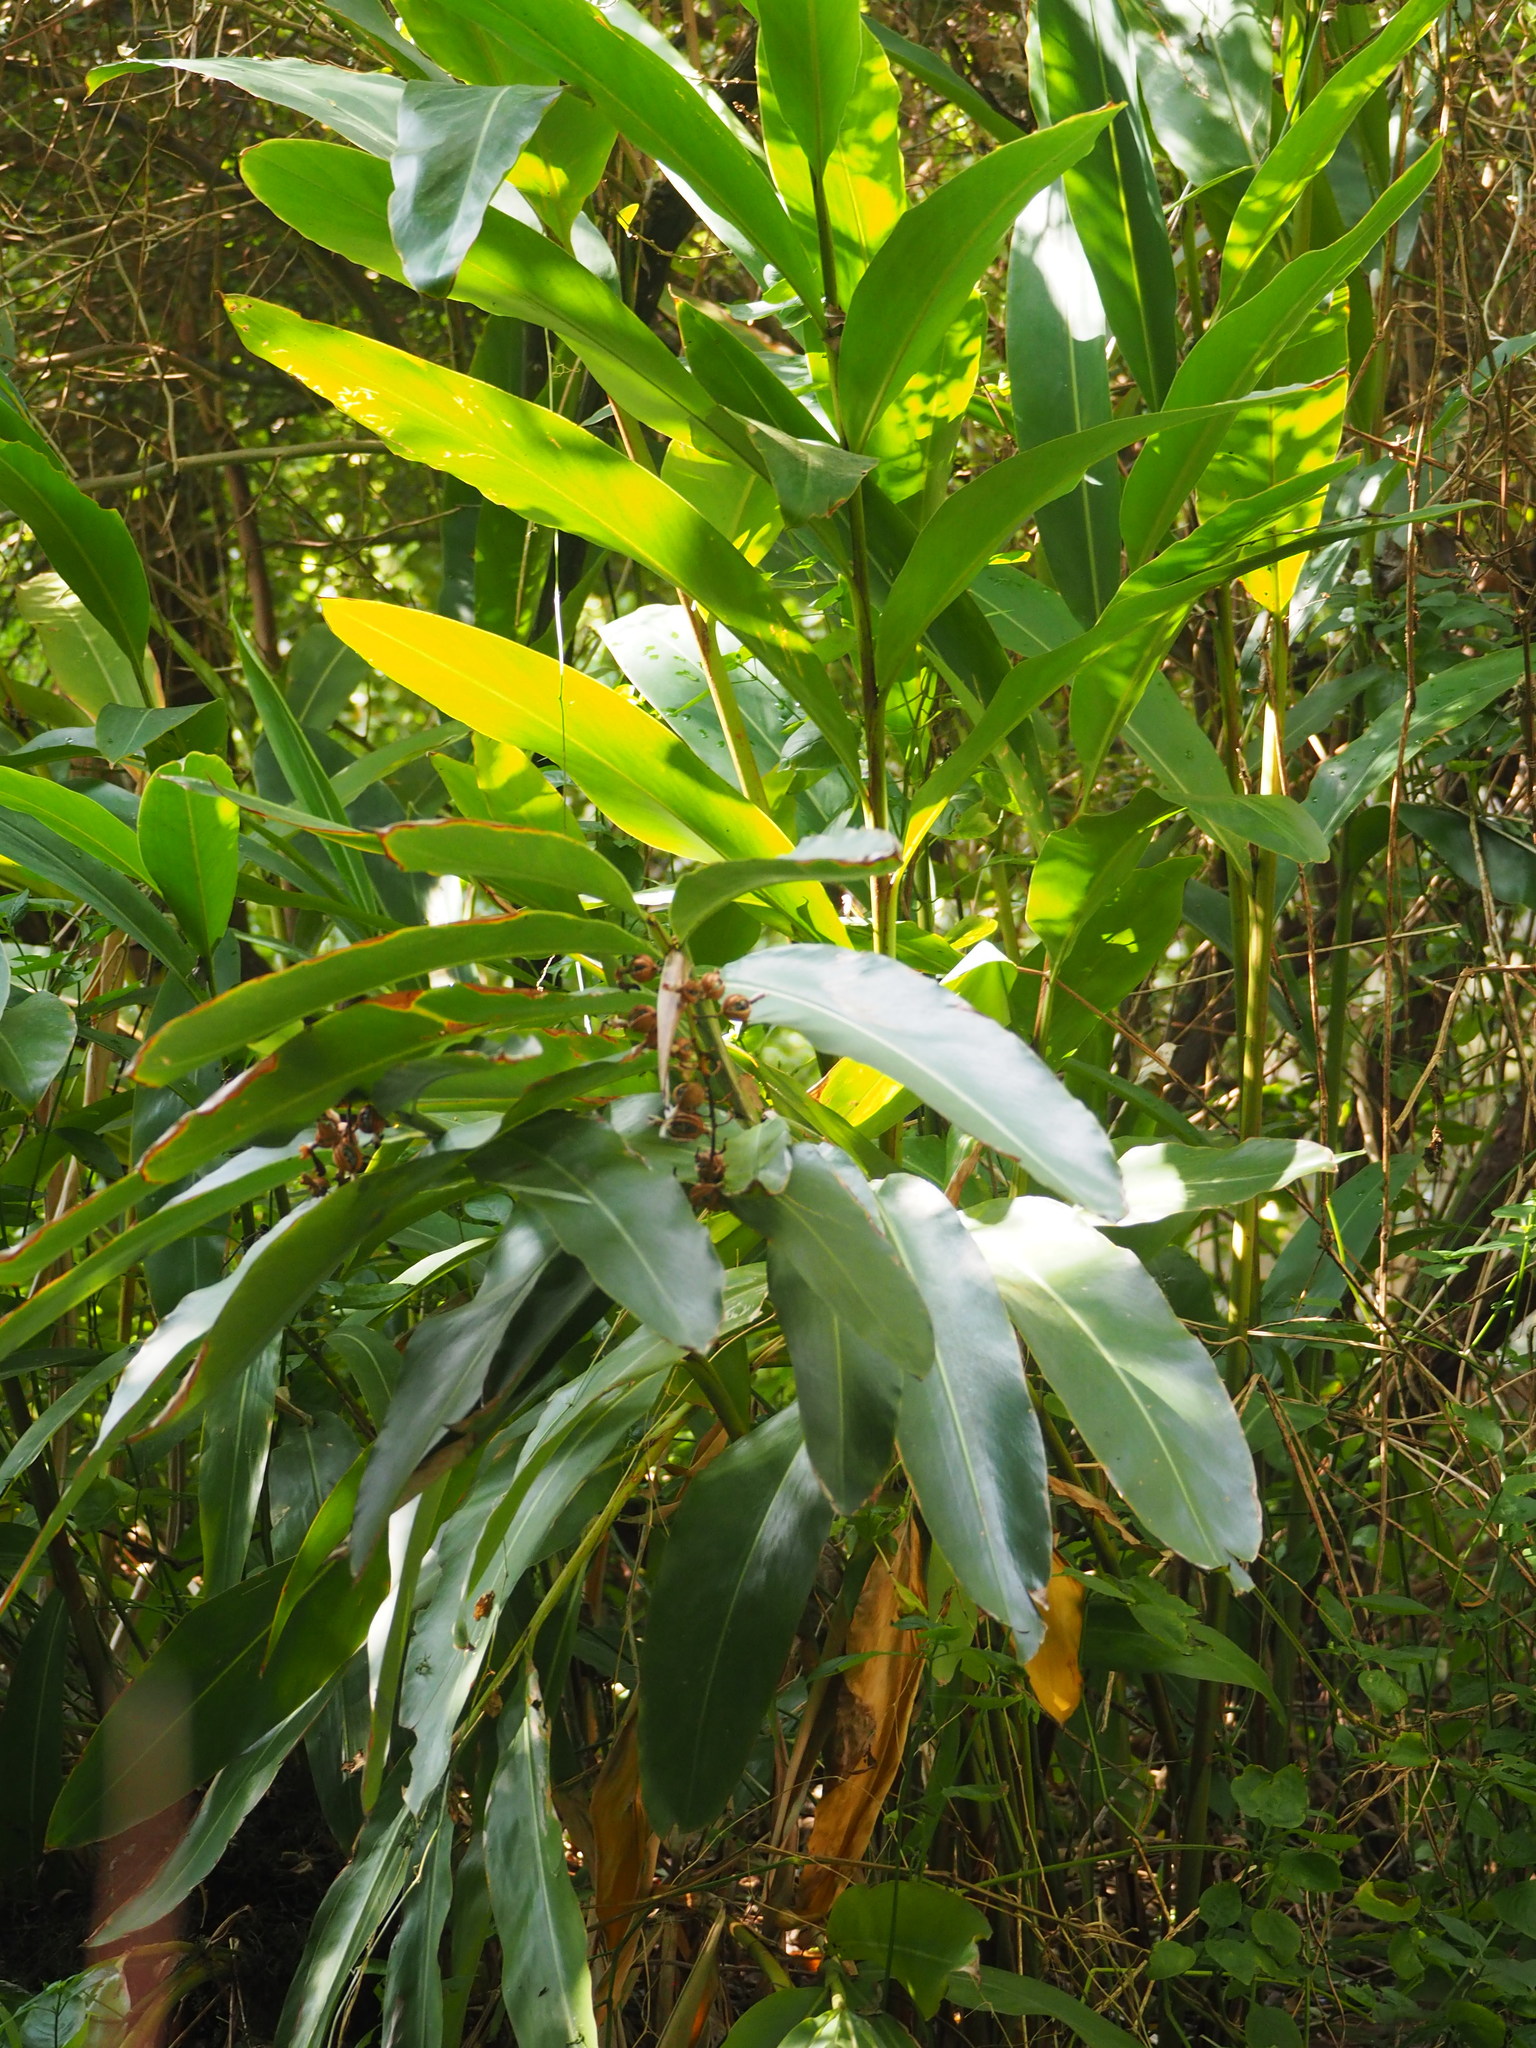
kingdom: Plantae
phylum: Tracheophyta
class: Liliopsida
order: Zingiberales
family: Zingiberaceae
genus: Alpinia
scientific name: Alpinia zerumbet
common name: Shellplant
